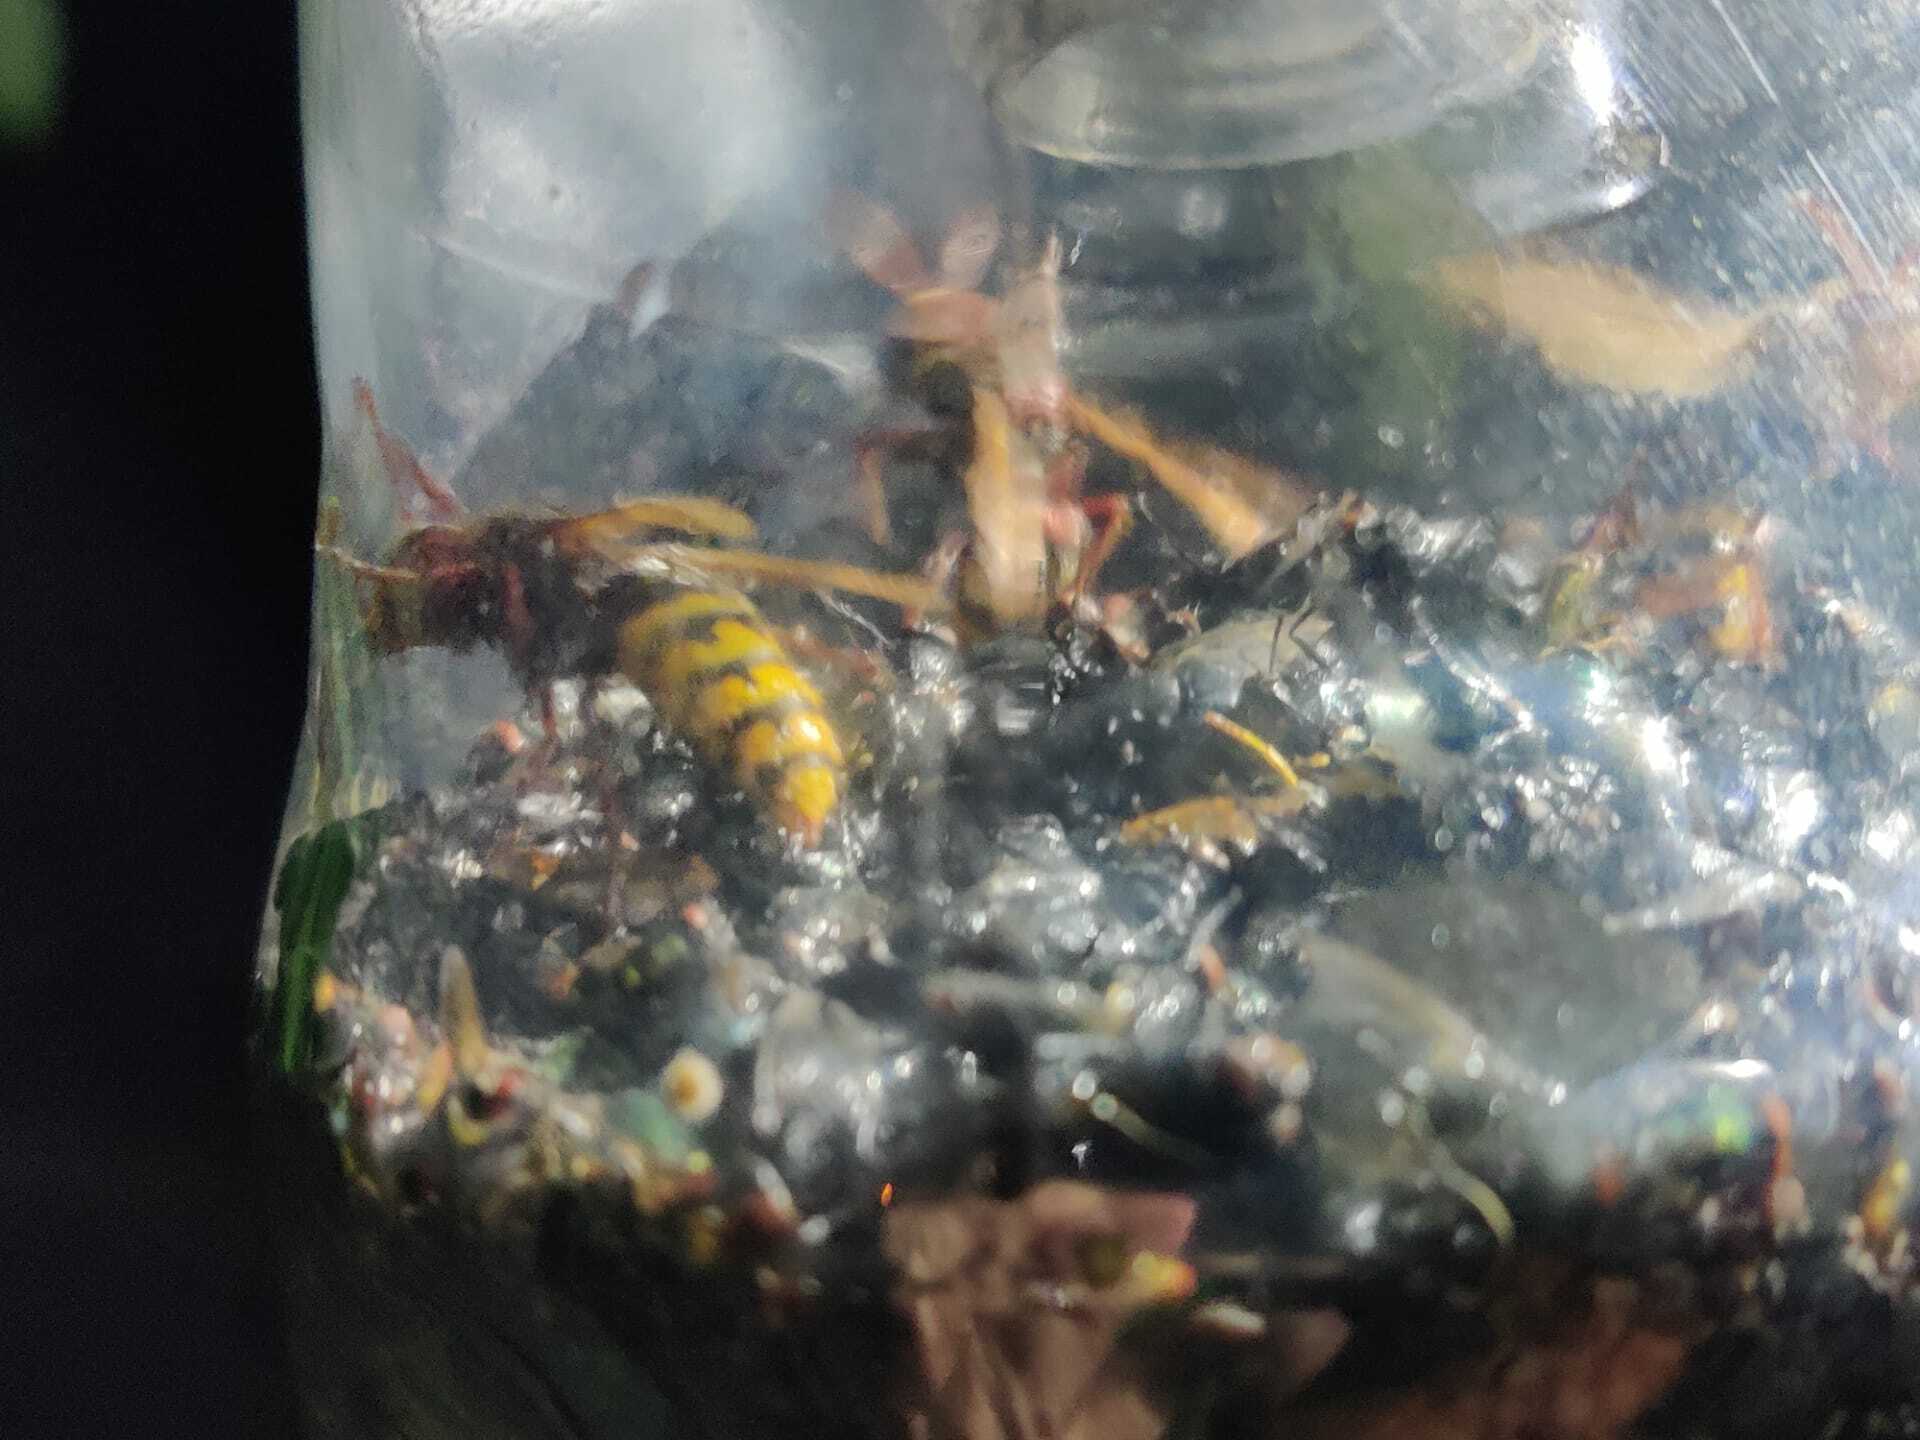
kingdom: Animalia
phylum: Arthropoda
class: Insecta
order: Hymenoptera
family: Vespidae
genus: Vespa
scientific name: Vespa crabro
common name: Hornet
